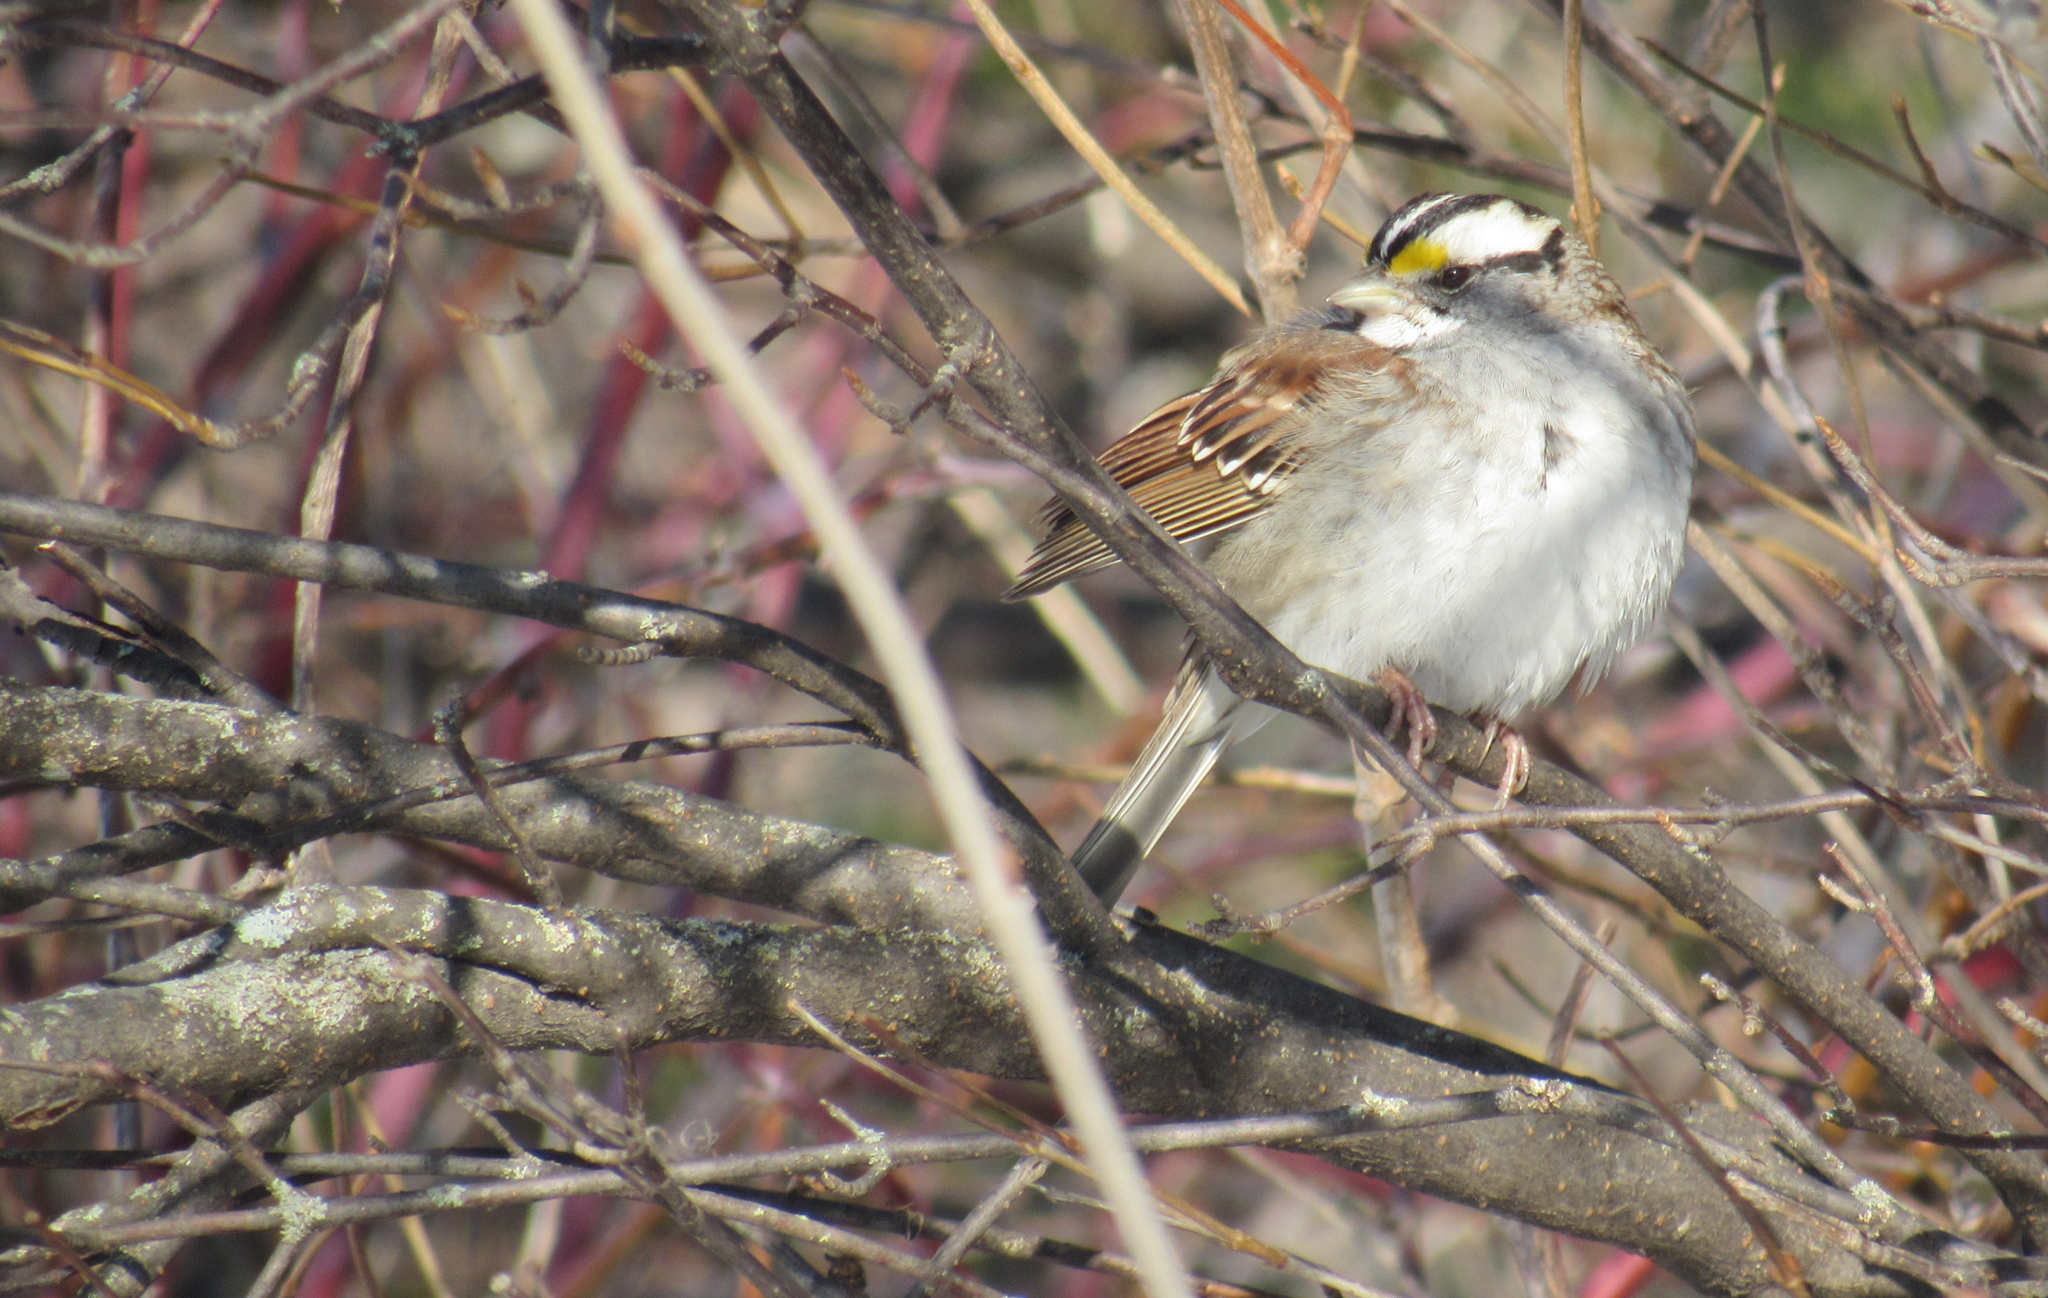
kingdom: Animalia
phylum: Chordata
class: Aves
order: Passeriformes
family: Passerellidae
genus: Zonotrichia
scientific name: Zonotrichia albicollis
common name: White-throated sparrow
